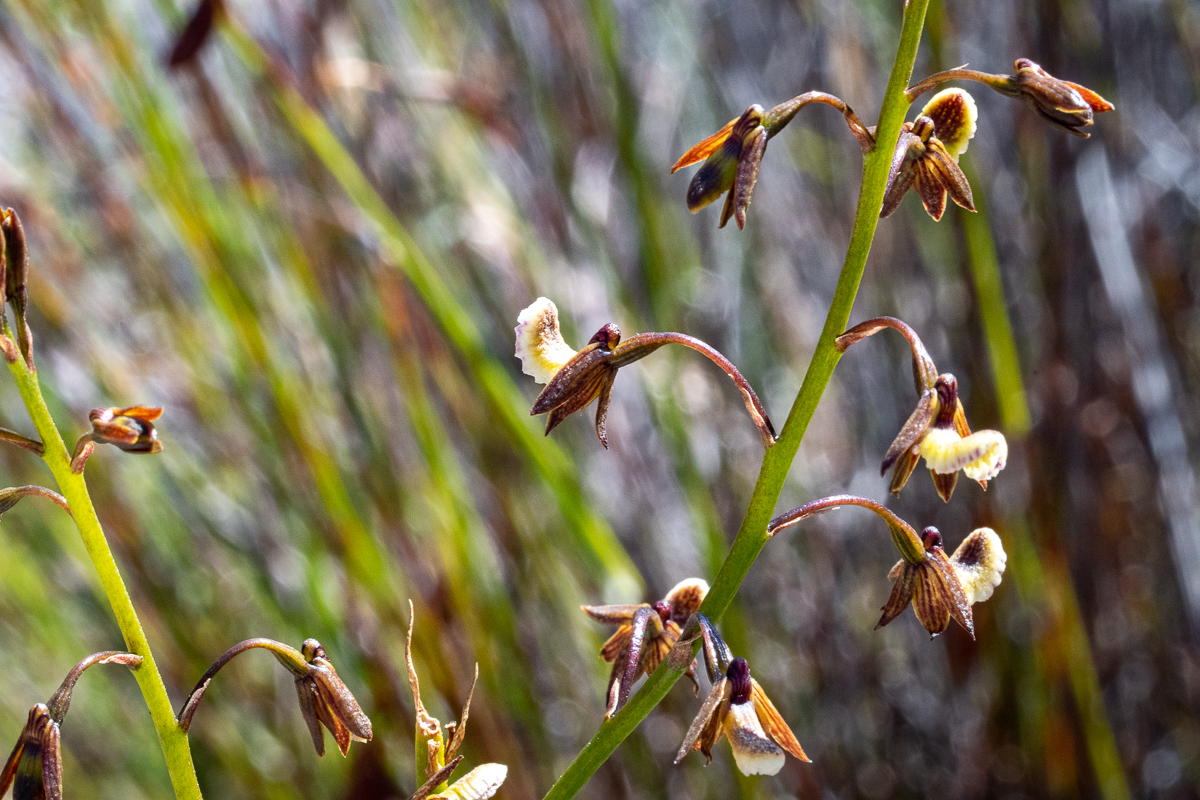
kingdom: Plantae
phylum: Tracheophyta
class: Liliopsida
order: Asparagales
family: Orchidaceae
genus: Eulophia
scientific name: Eulophia bolusii
